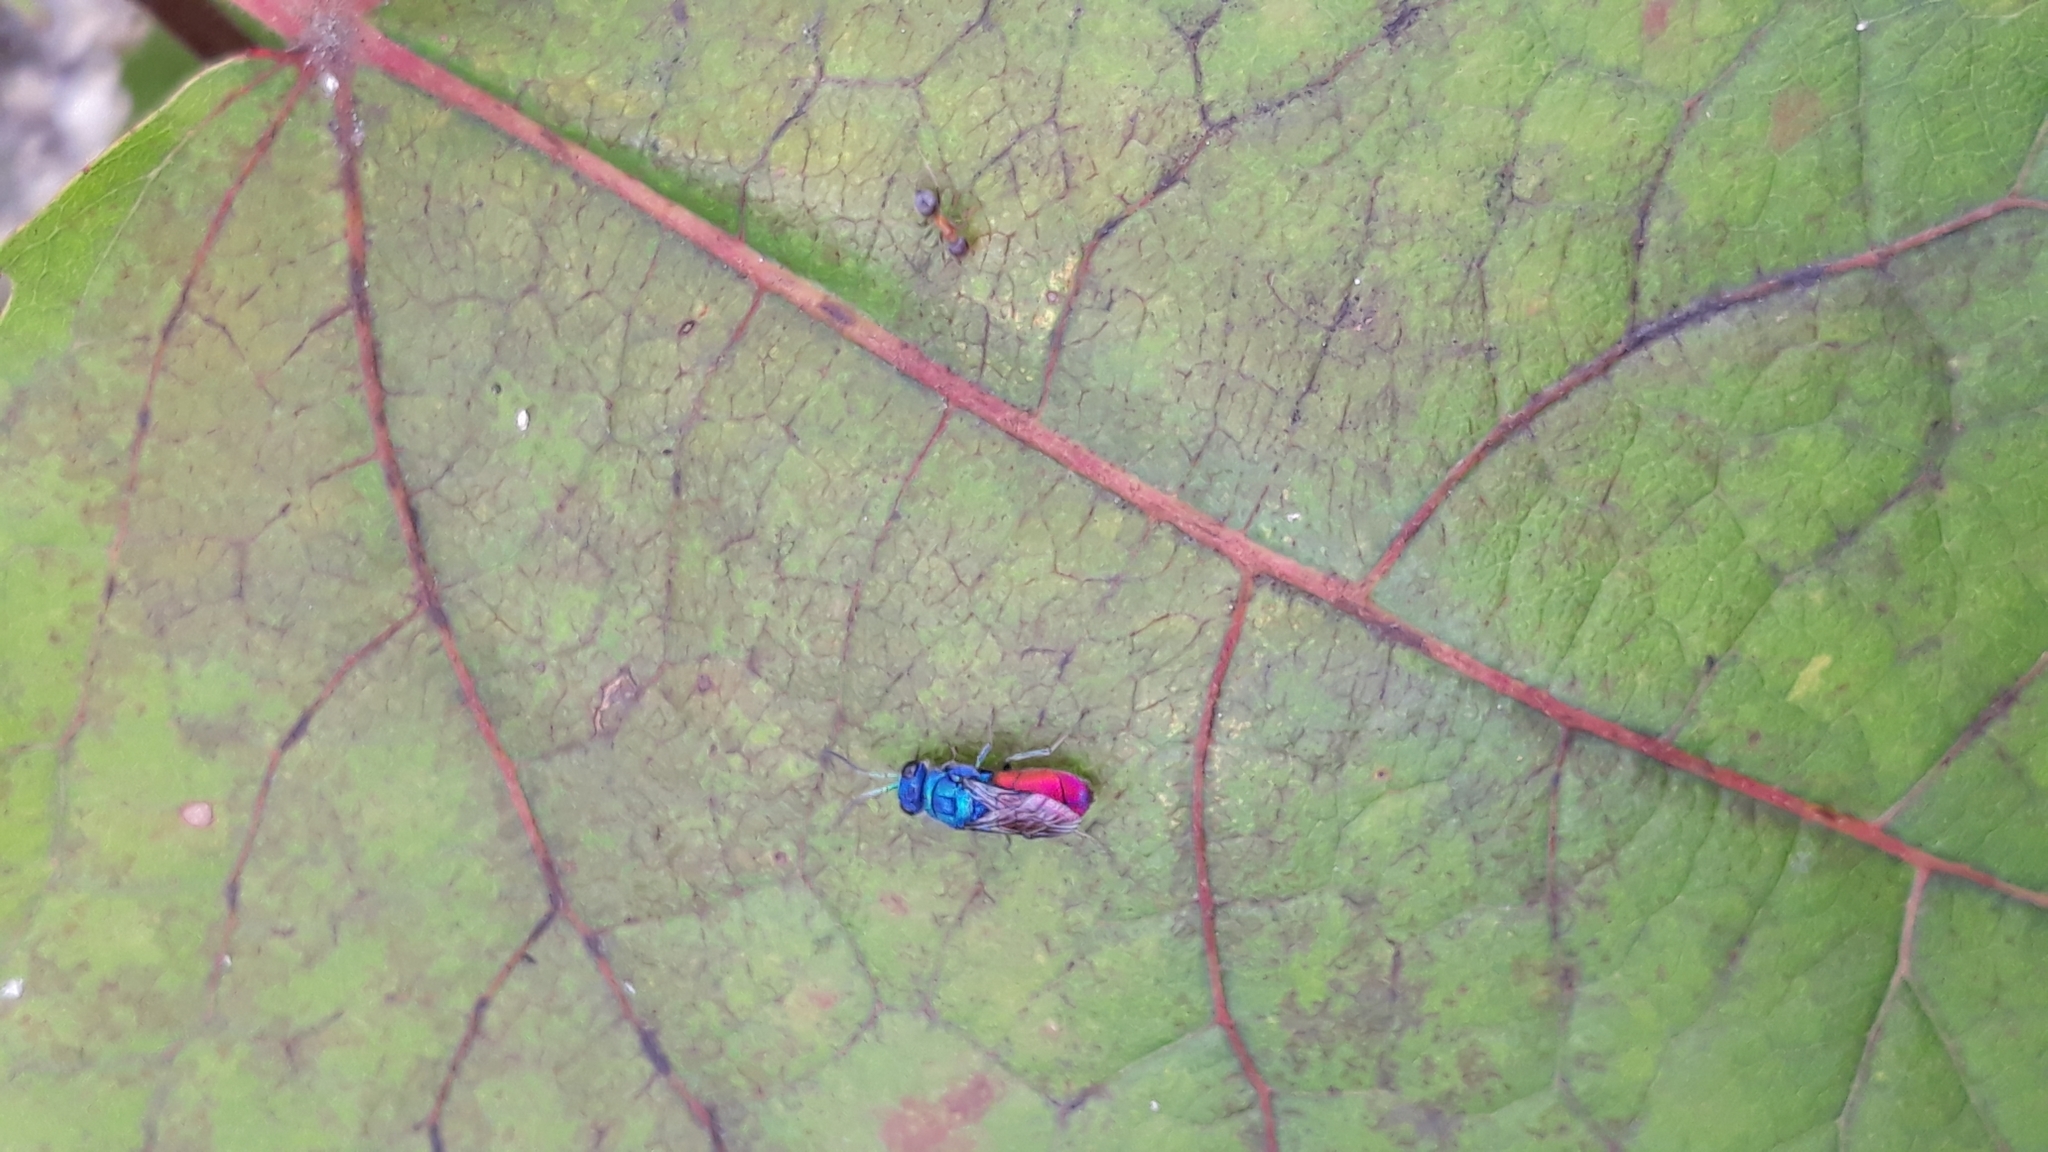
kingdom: Animalia
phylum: Arthropoda
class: Insecta
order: Hymenoptera
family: Chrysididae
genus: Chrysis
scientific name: Chrysis inaequalis
